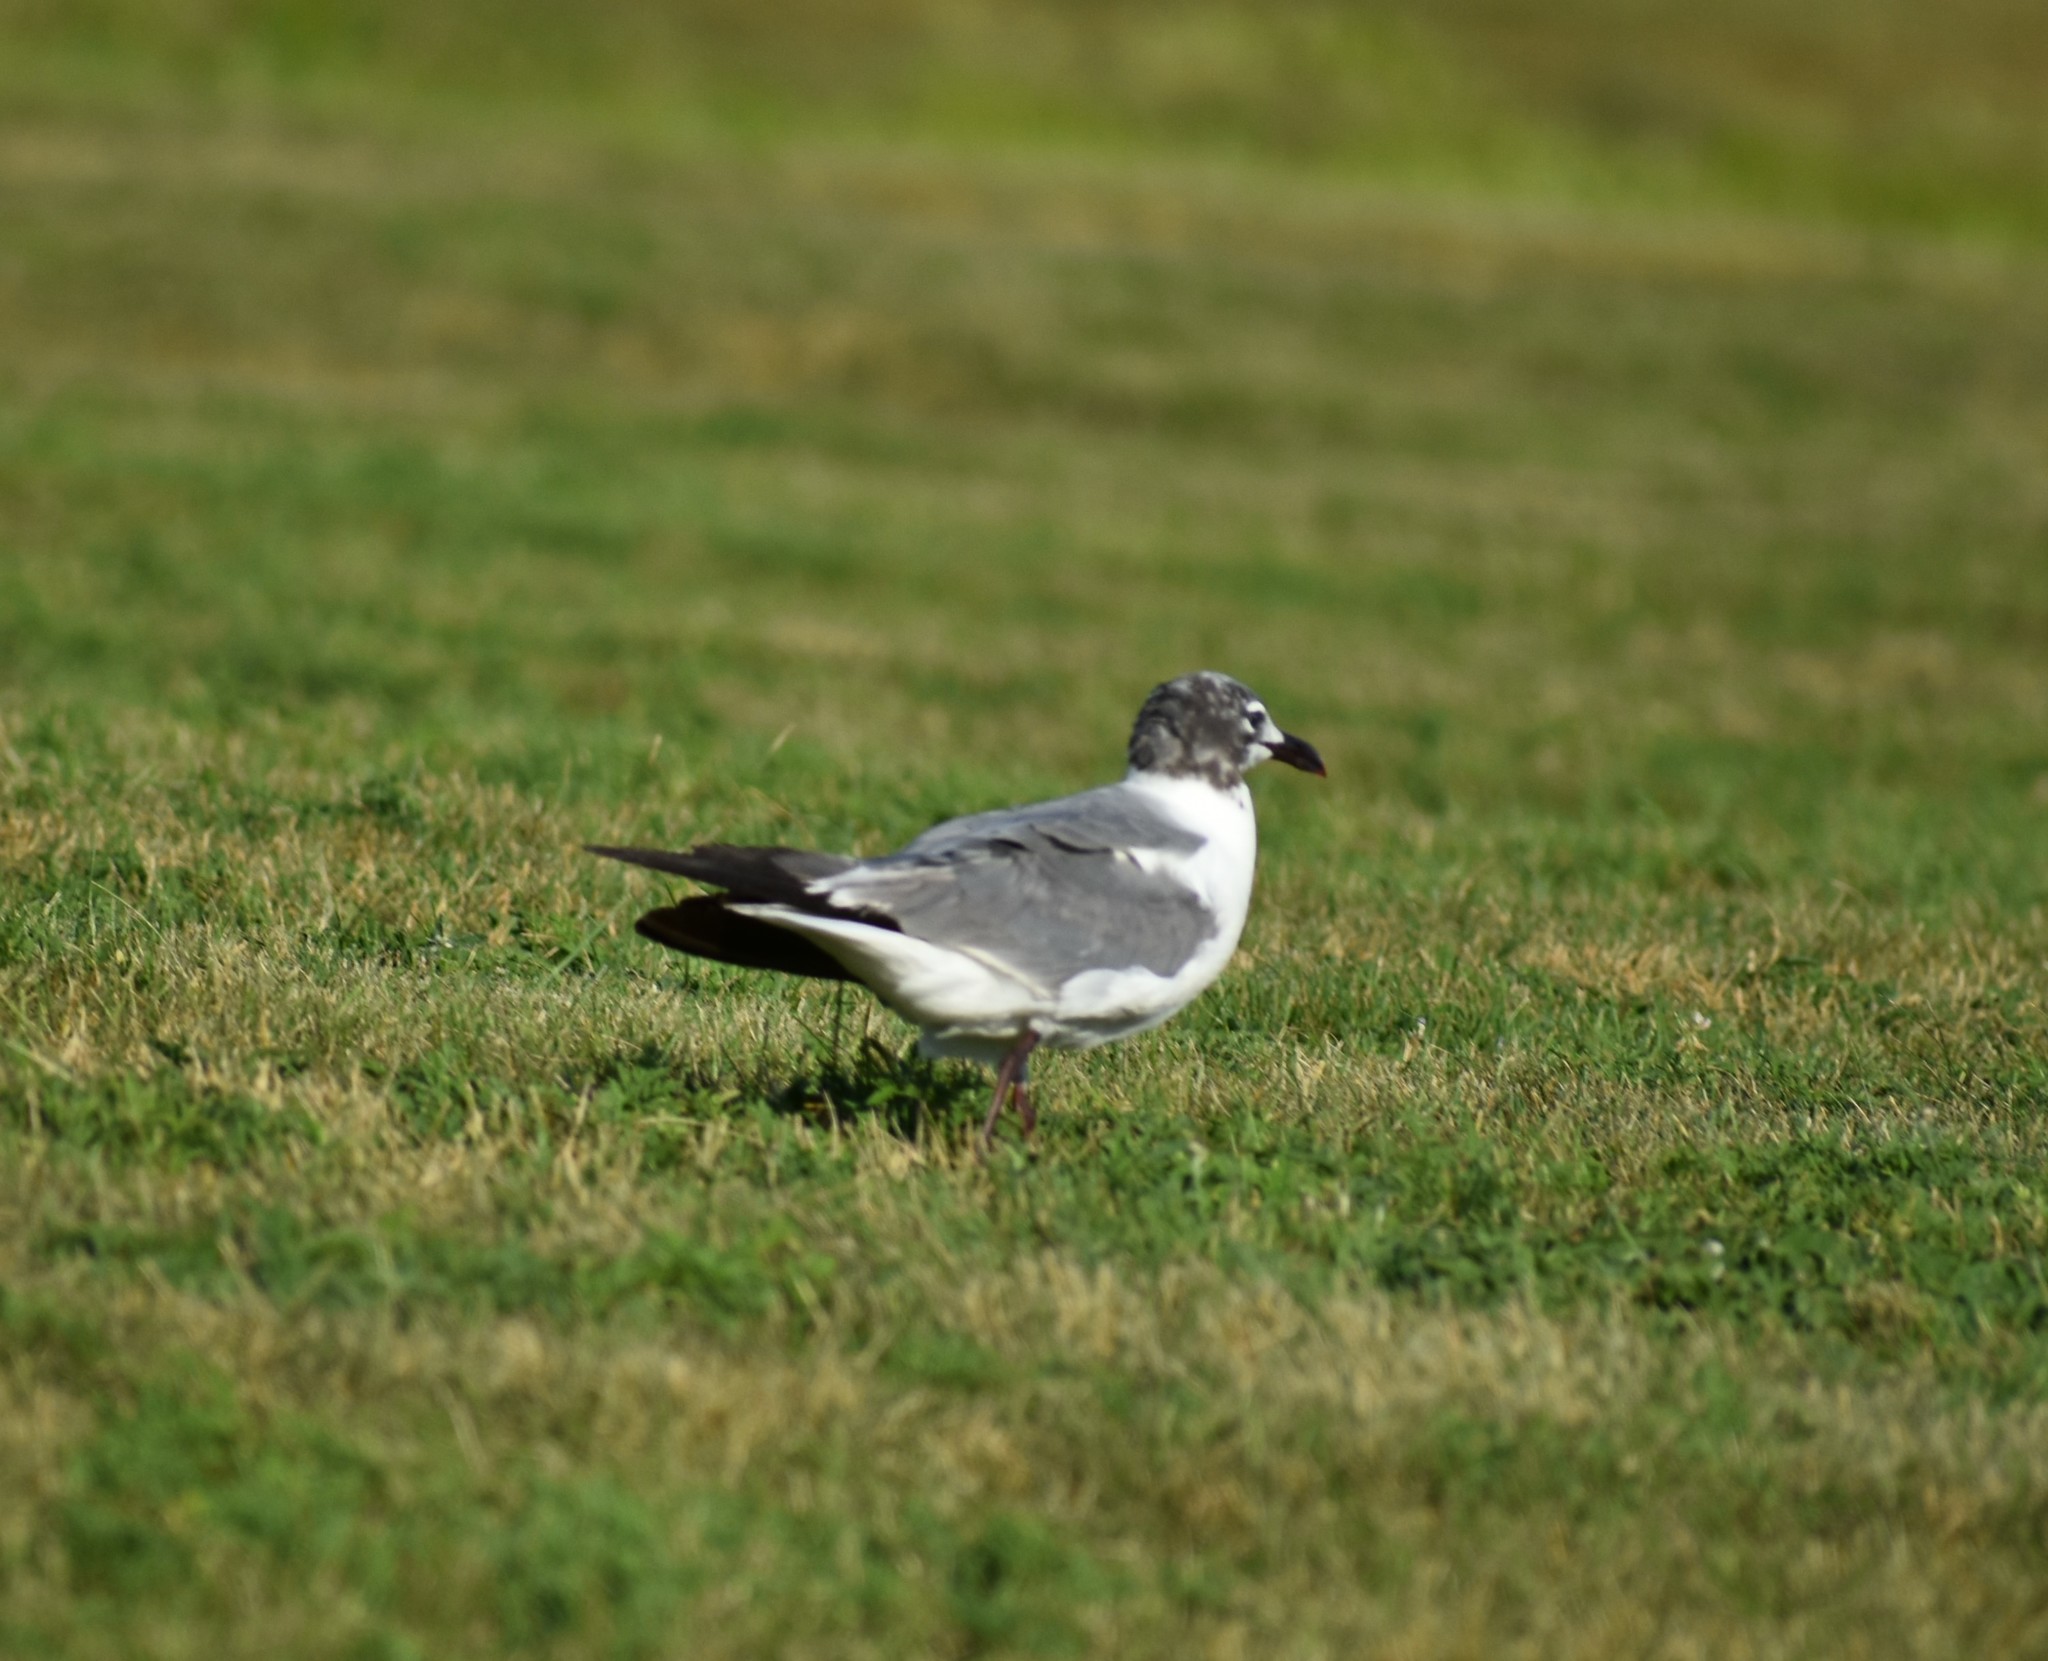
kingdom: Animalia
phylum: Chordata
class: Aves
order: Charadriiformes
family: Laridae
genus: Leucophaeus
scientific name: Leucophaeus atricilla
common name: Laughing gull
